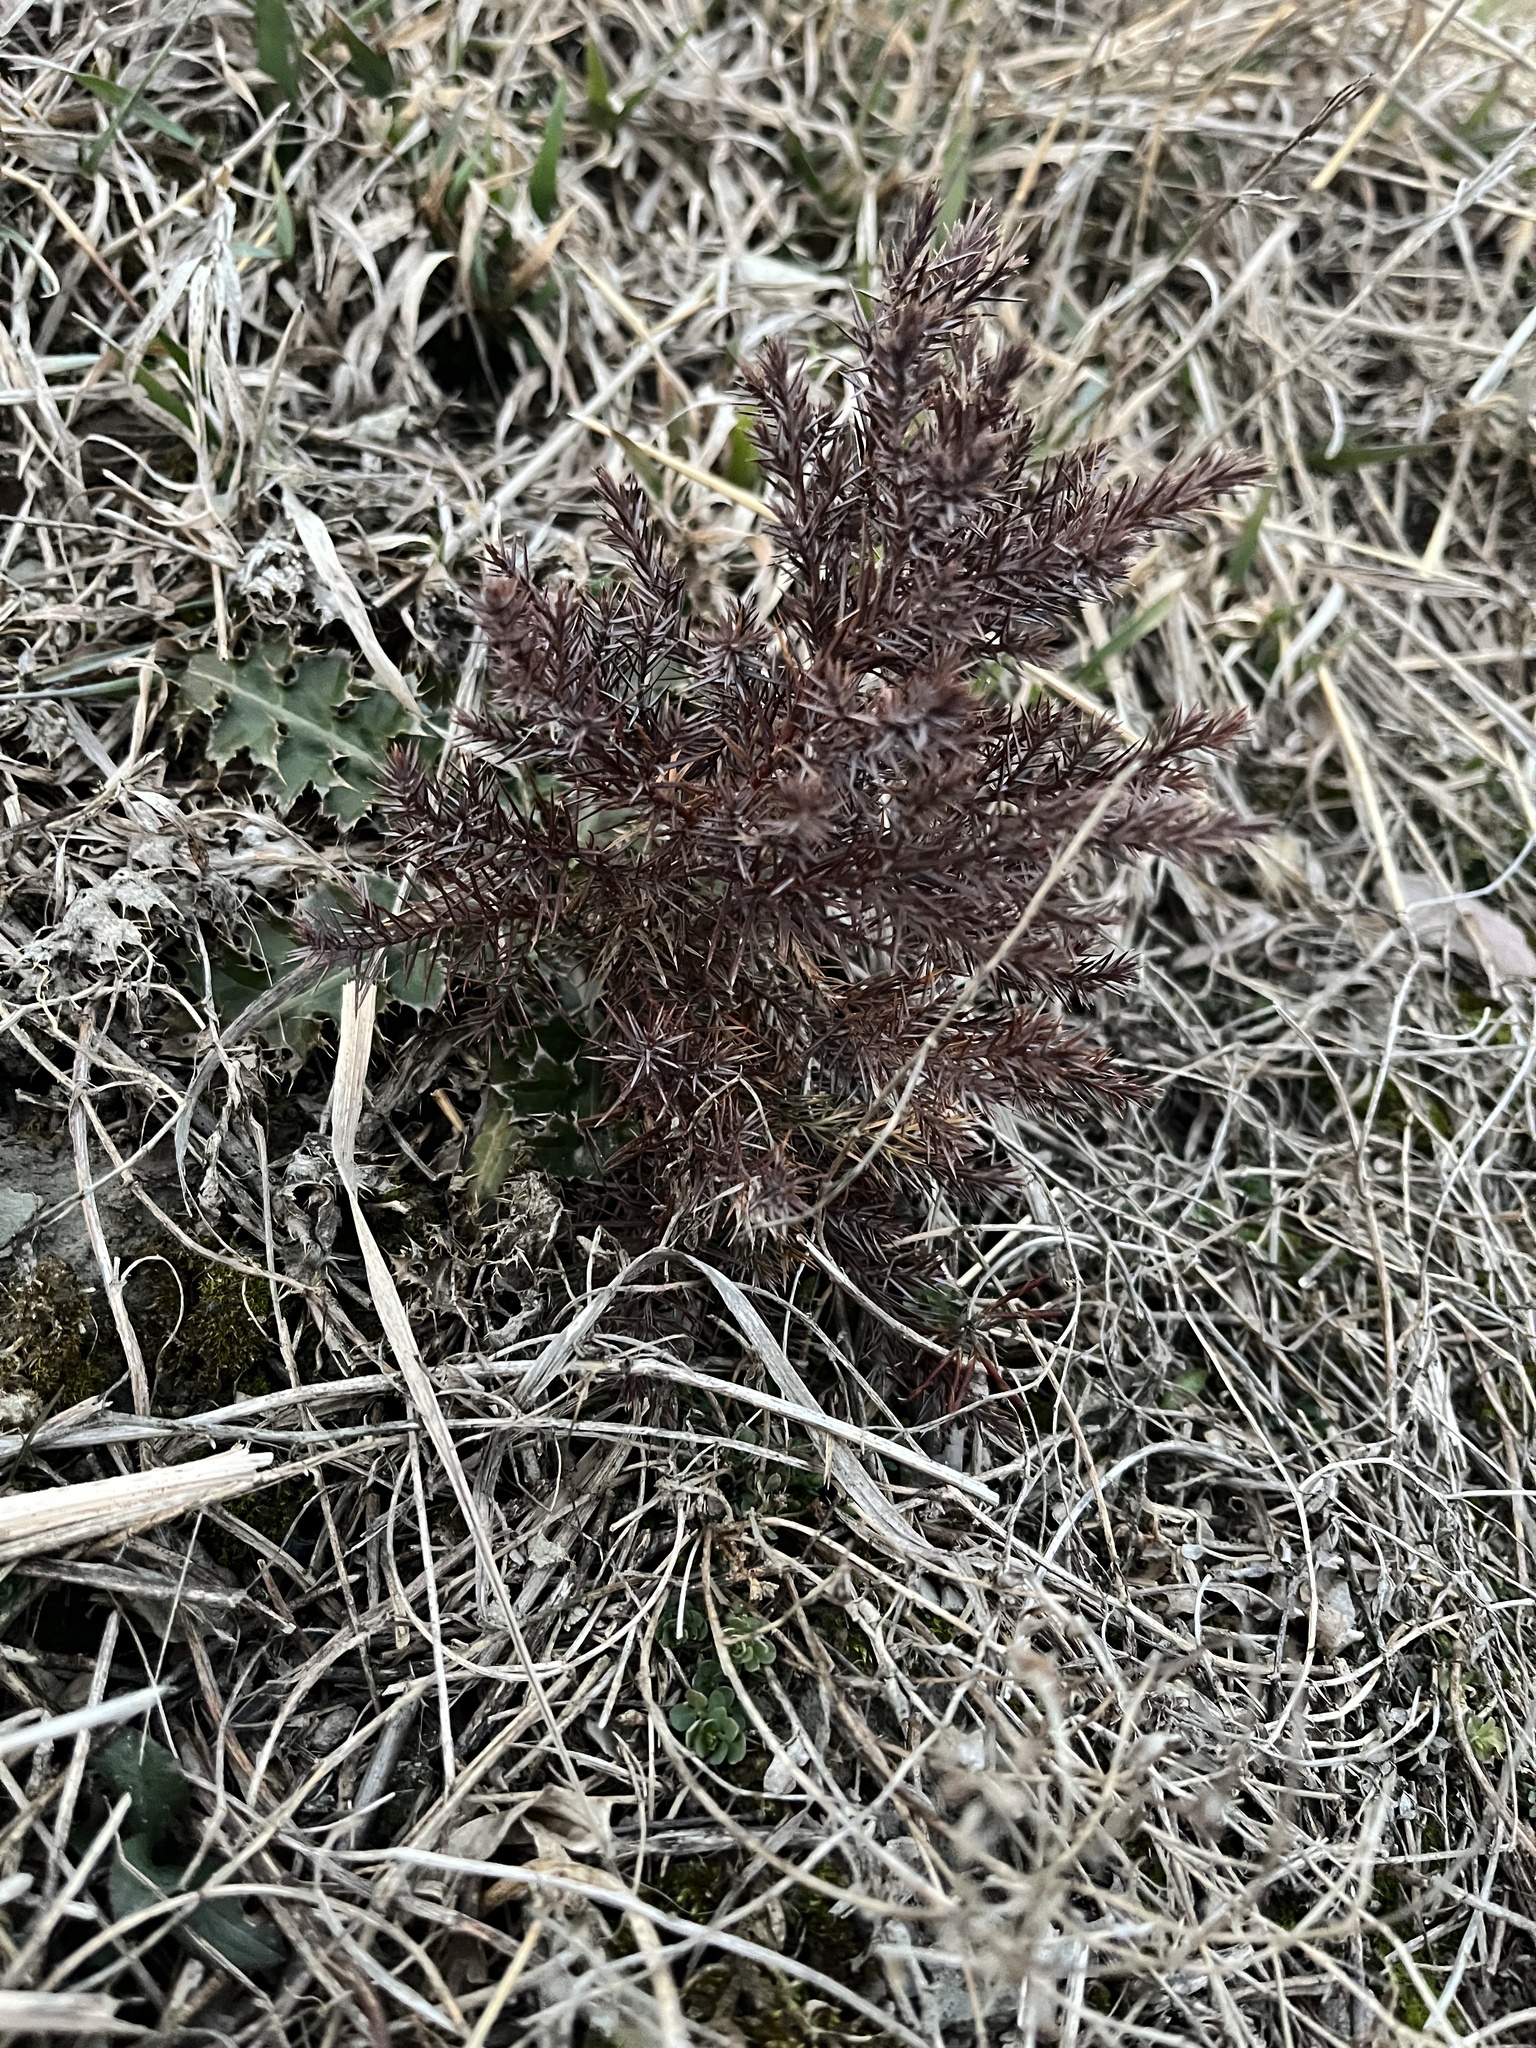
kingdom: Plantae
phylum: Tracheophyta
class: Pinopsida
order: Pinales
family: Cupressaceae
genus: Juniperus
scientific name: Juniperus virginiana
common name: Red juniper
